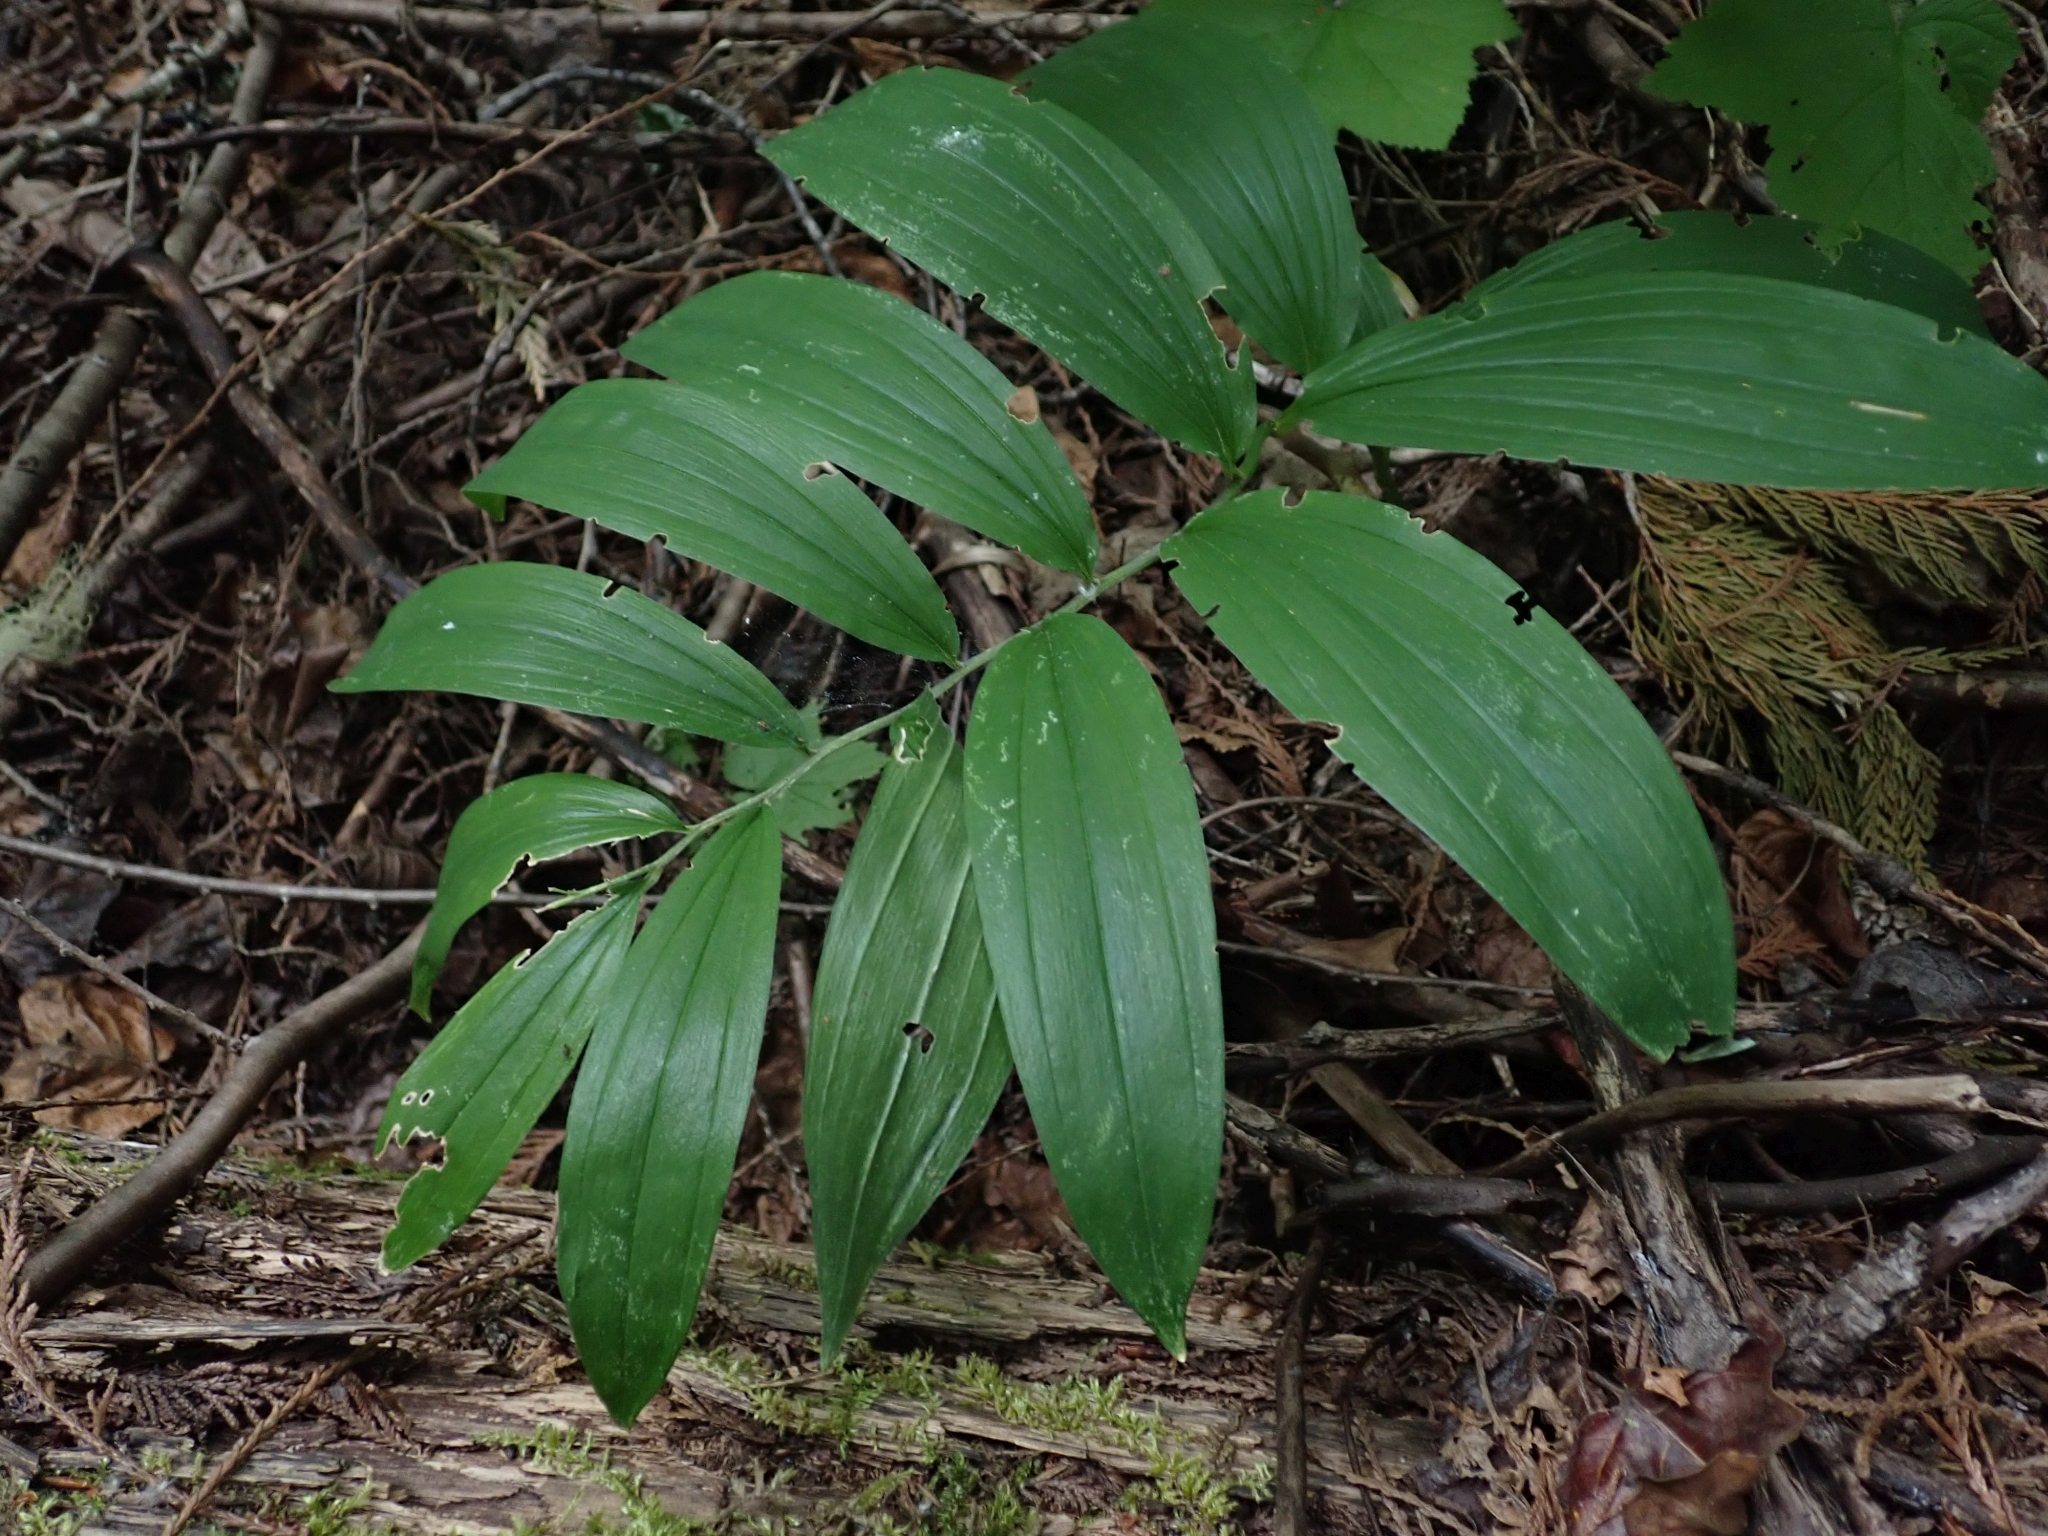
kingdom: Plantae
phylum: Tracheophyta
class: Liliopsida
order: Asparagales
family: Asparagaceae
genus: Maianthemum
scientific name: Maianthemum racemosum
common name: False spikenard
